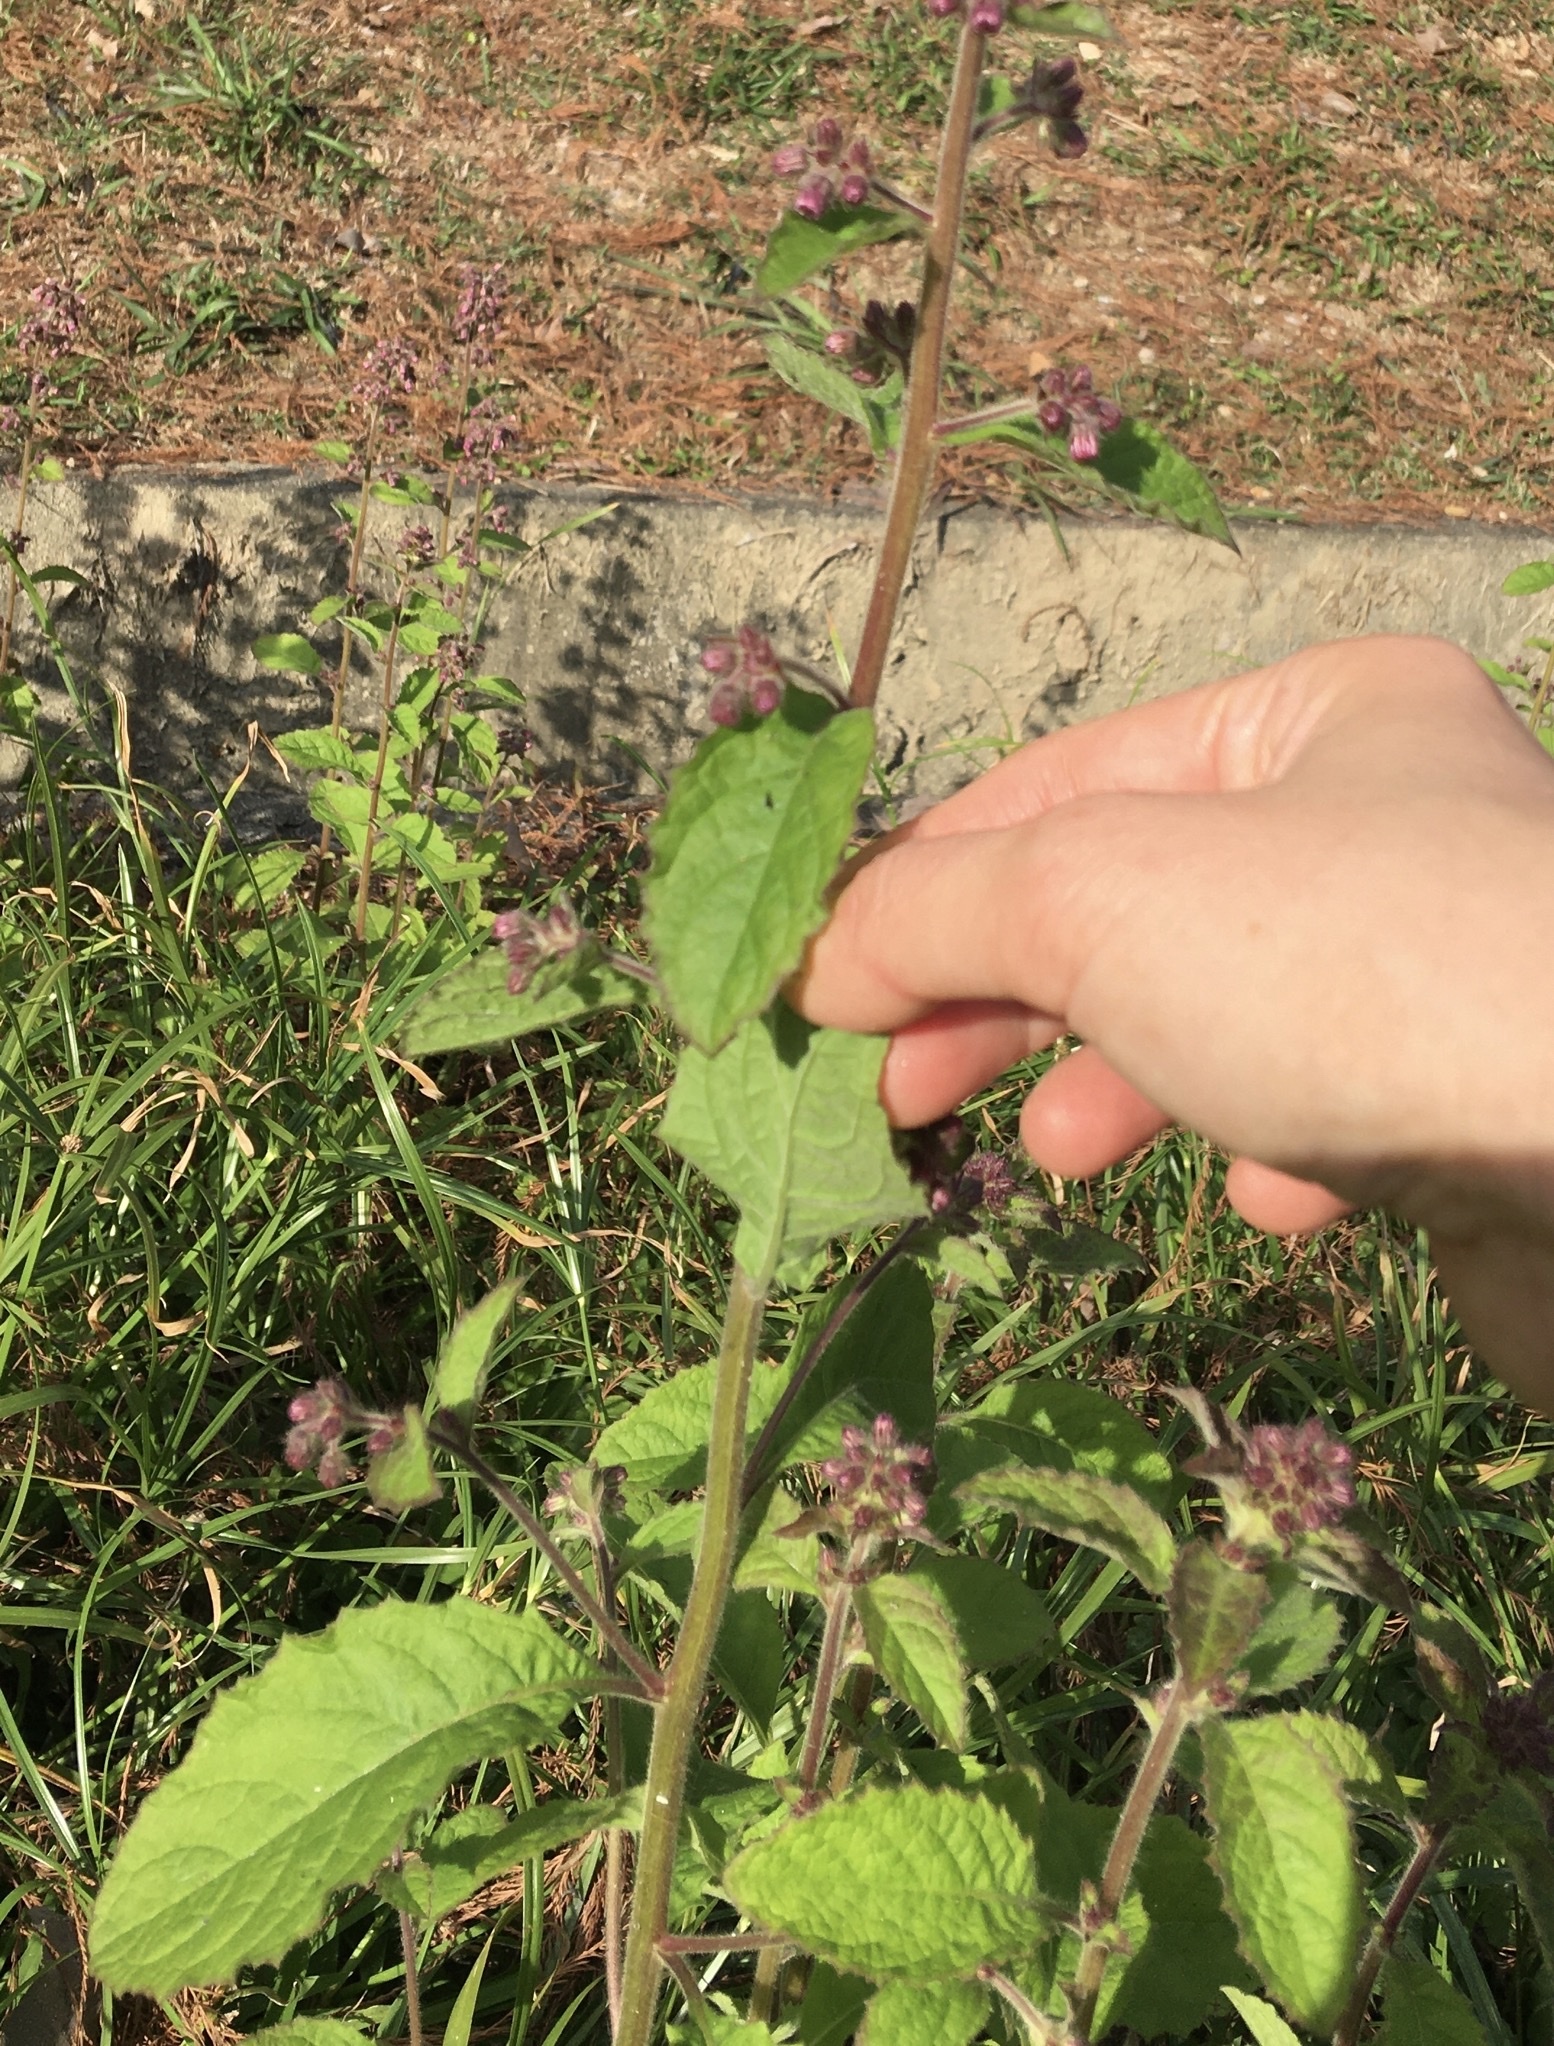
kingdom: Plantae
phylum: Tracheophyta
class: Magnoliopsida
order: Asterales
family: Asteraceae
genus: Blumea
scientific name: Blumea axillaris
